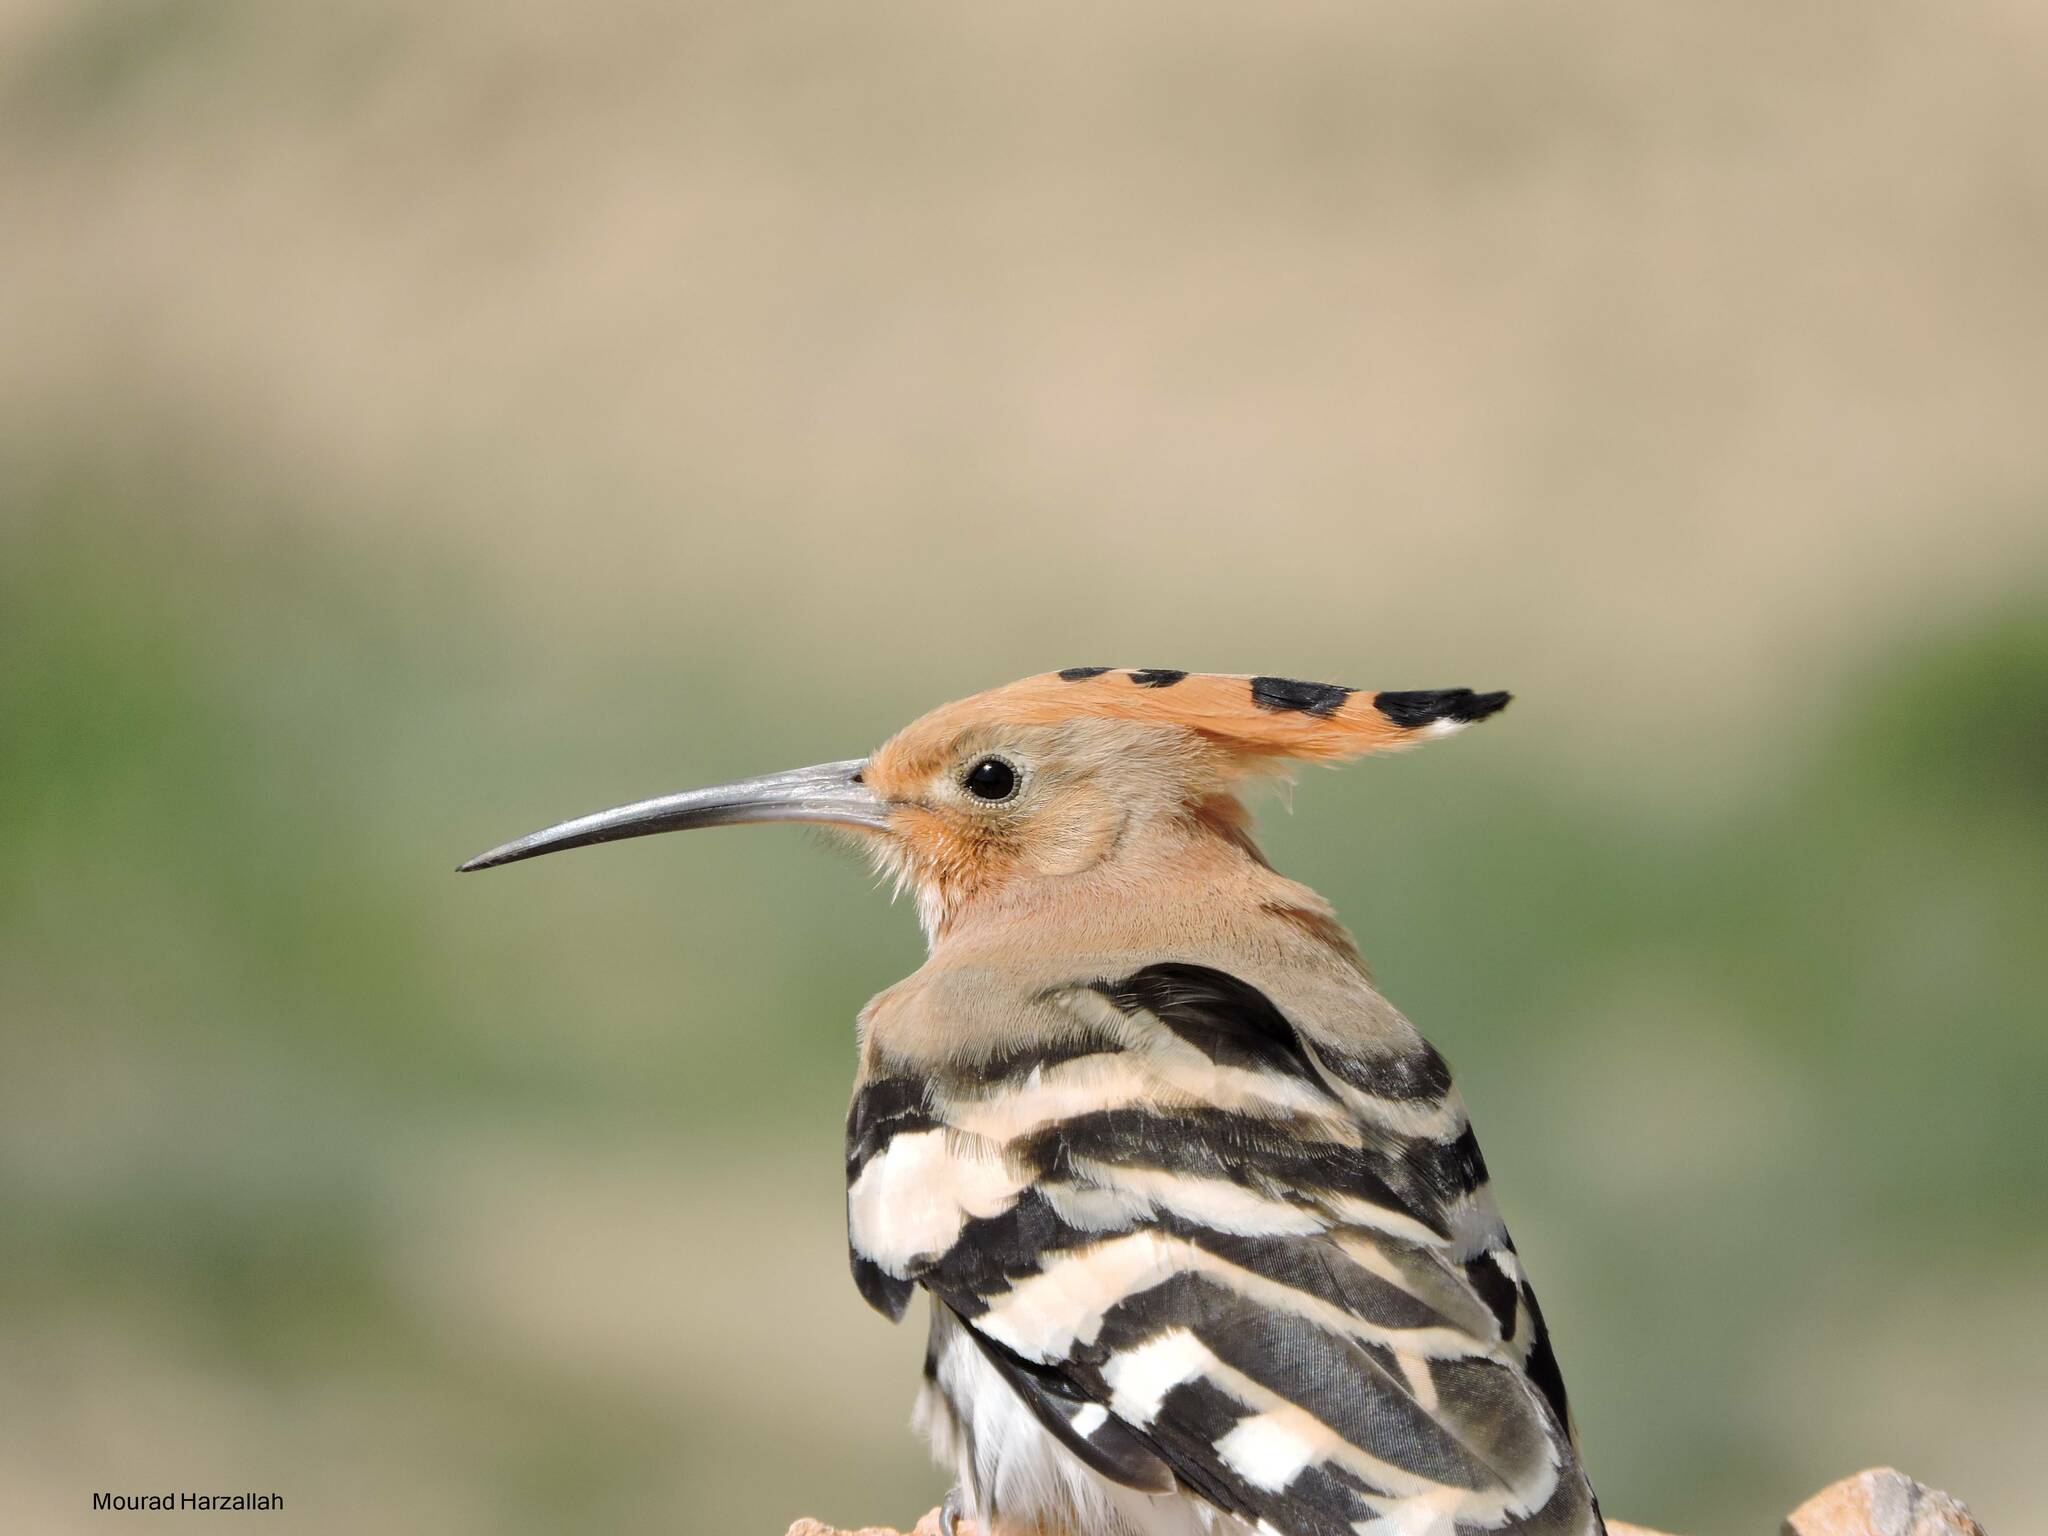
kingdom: Animalia
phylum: Chordata
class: Aves
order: Bucerotiformes
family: Upupidae
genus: Upupa
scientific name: Upupa epops
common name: Eurasian hoopoe
